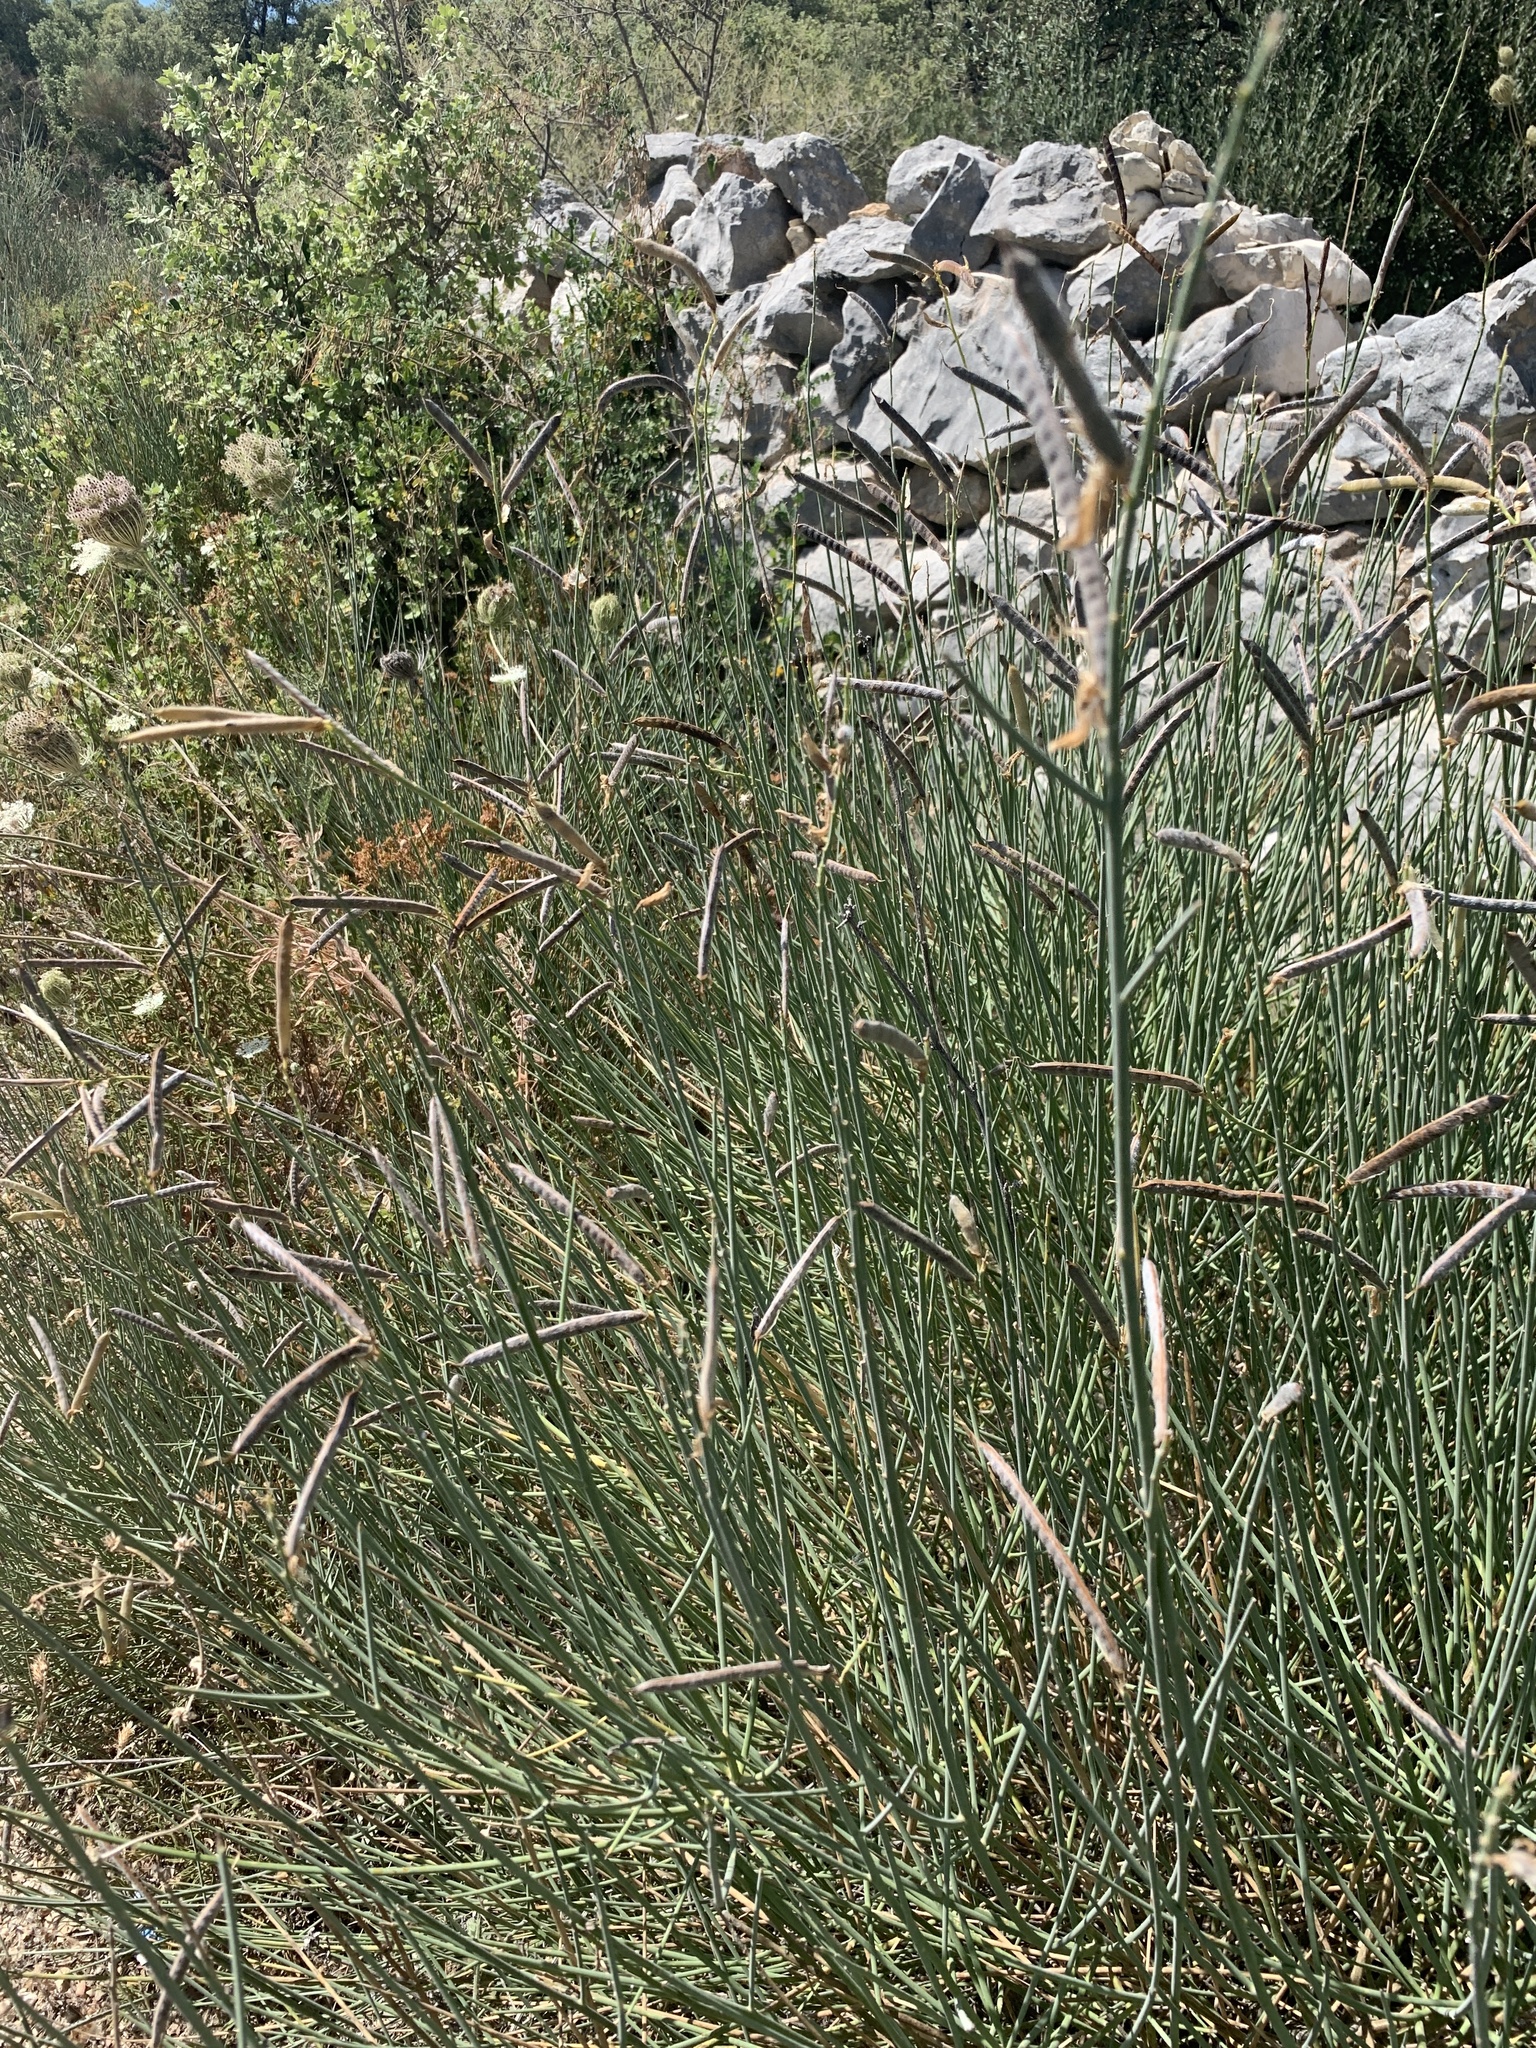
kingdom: Plantae
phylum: Tracheophyta
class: Magnoliopsida
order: Fabales
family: Fabaceae
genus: Spartium
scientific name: Spartium junceum
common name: Spanish broom
